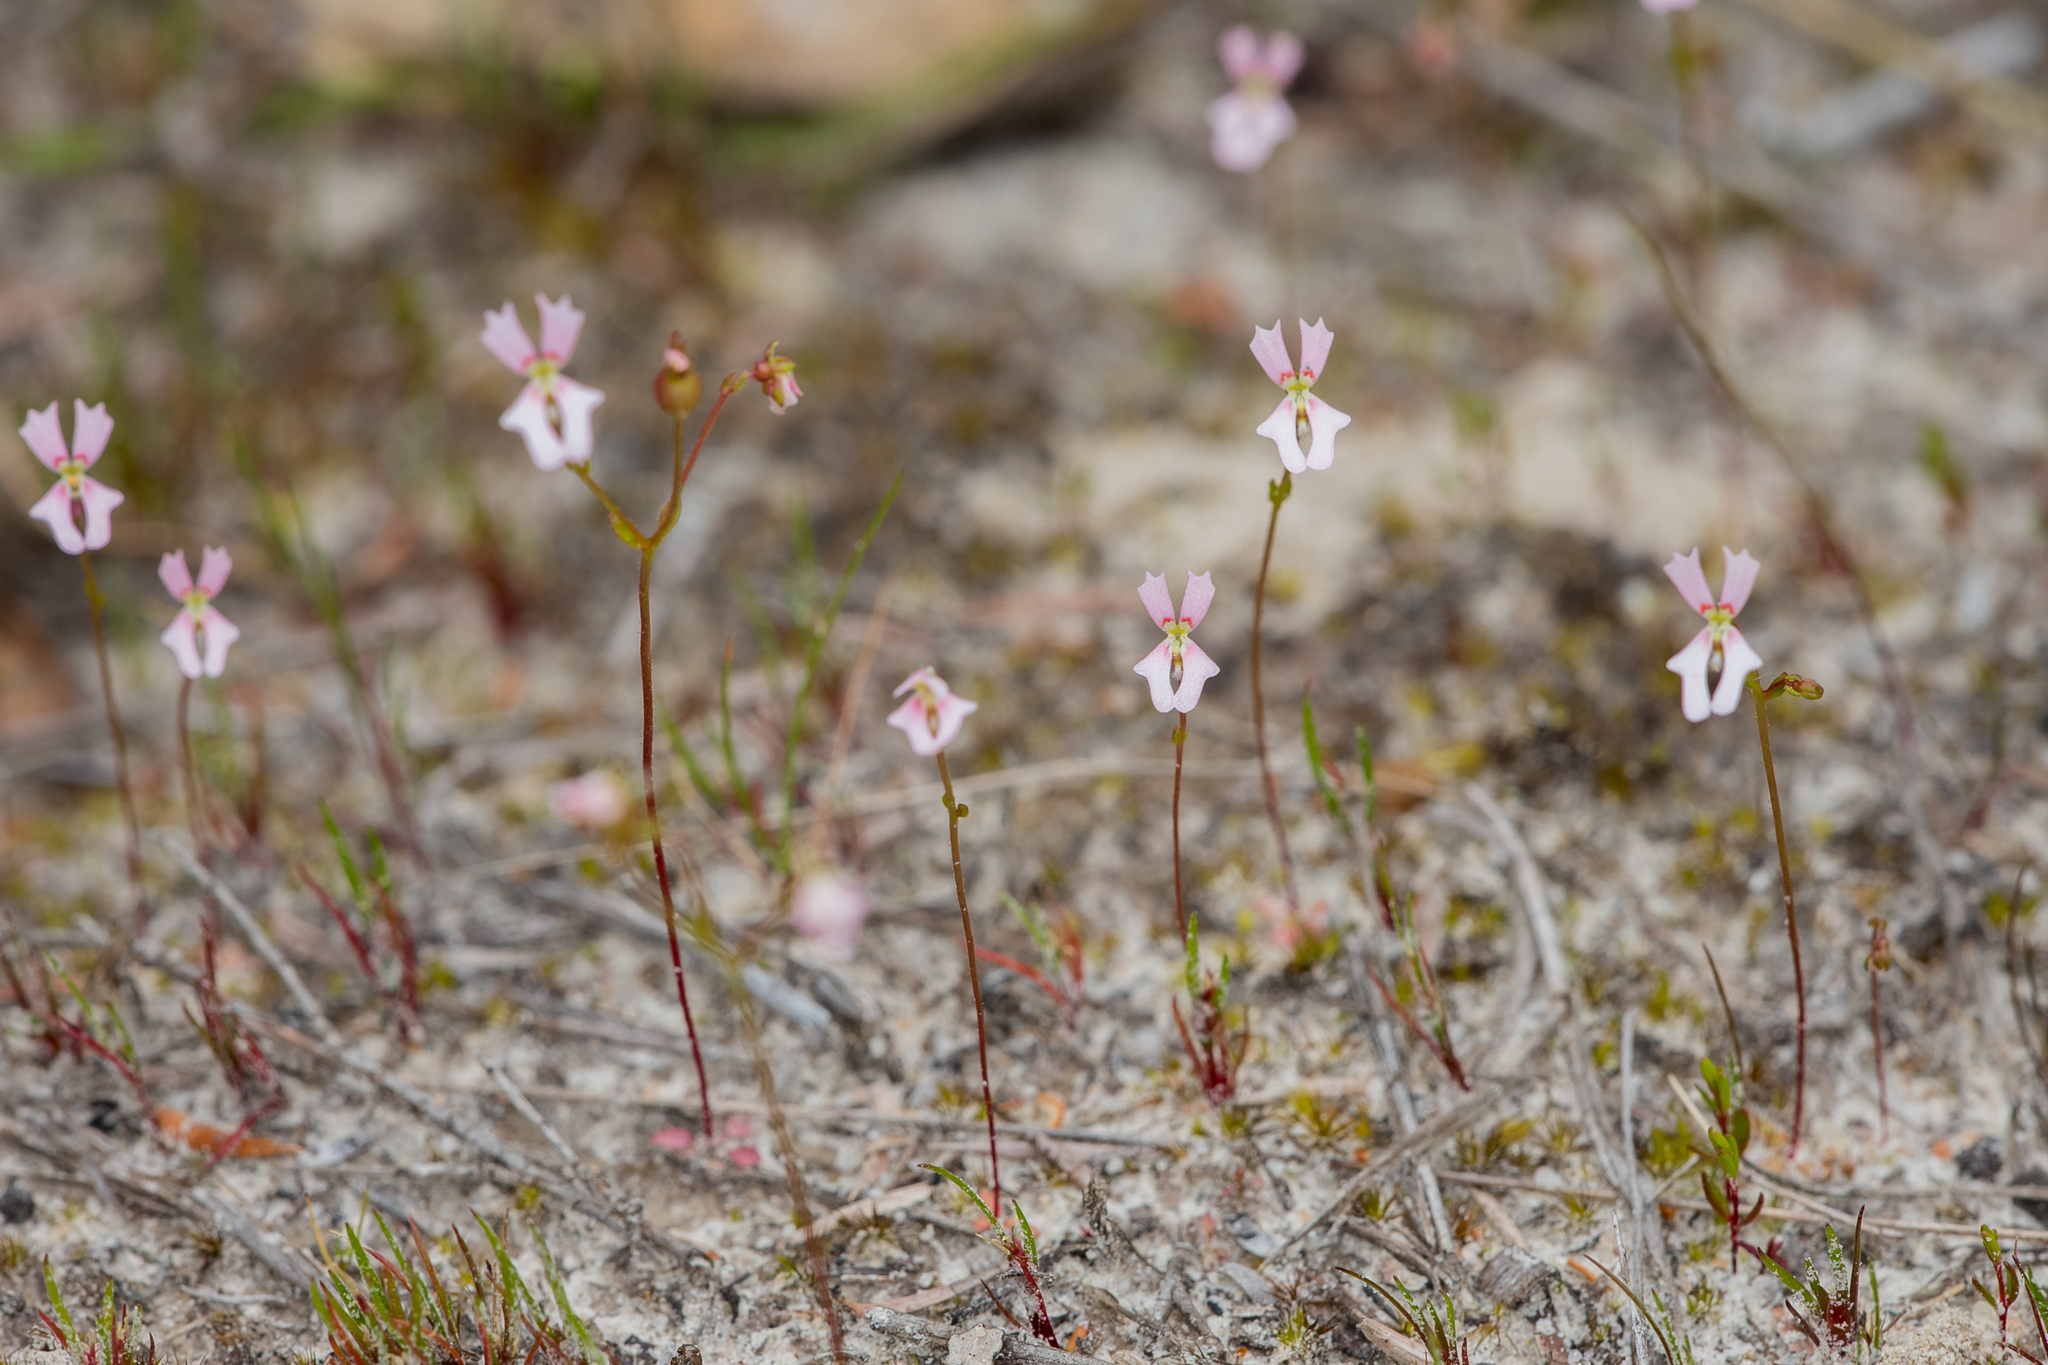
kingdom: Plantae
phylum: Tracheophyta
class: Magnoliopsida
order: Asterales
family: Stylidiaceae
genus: Stylidium
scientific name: Stylidium calcaratum
